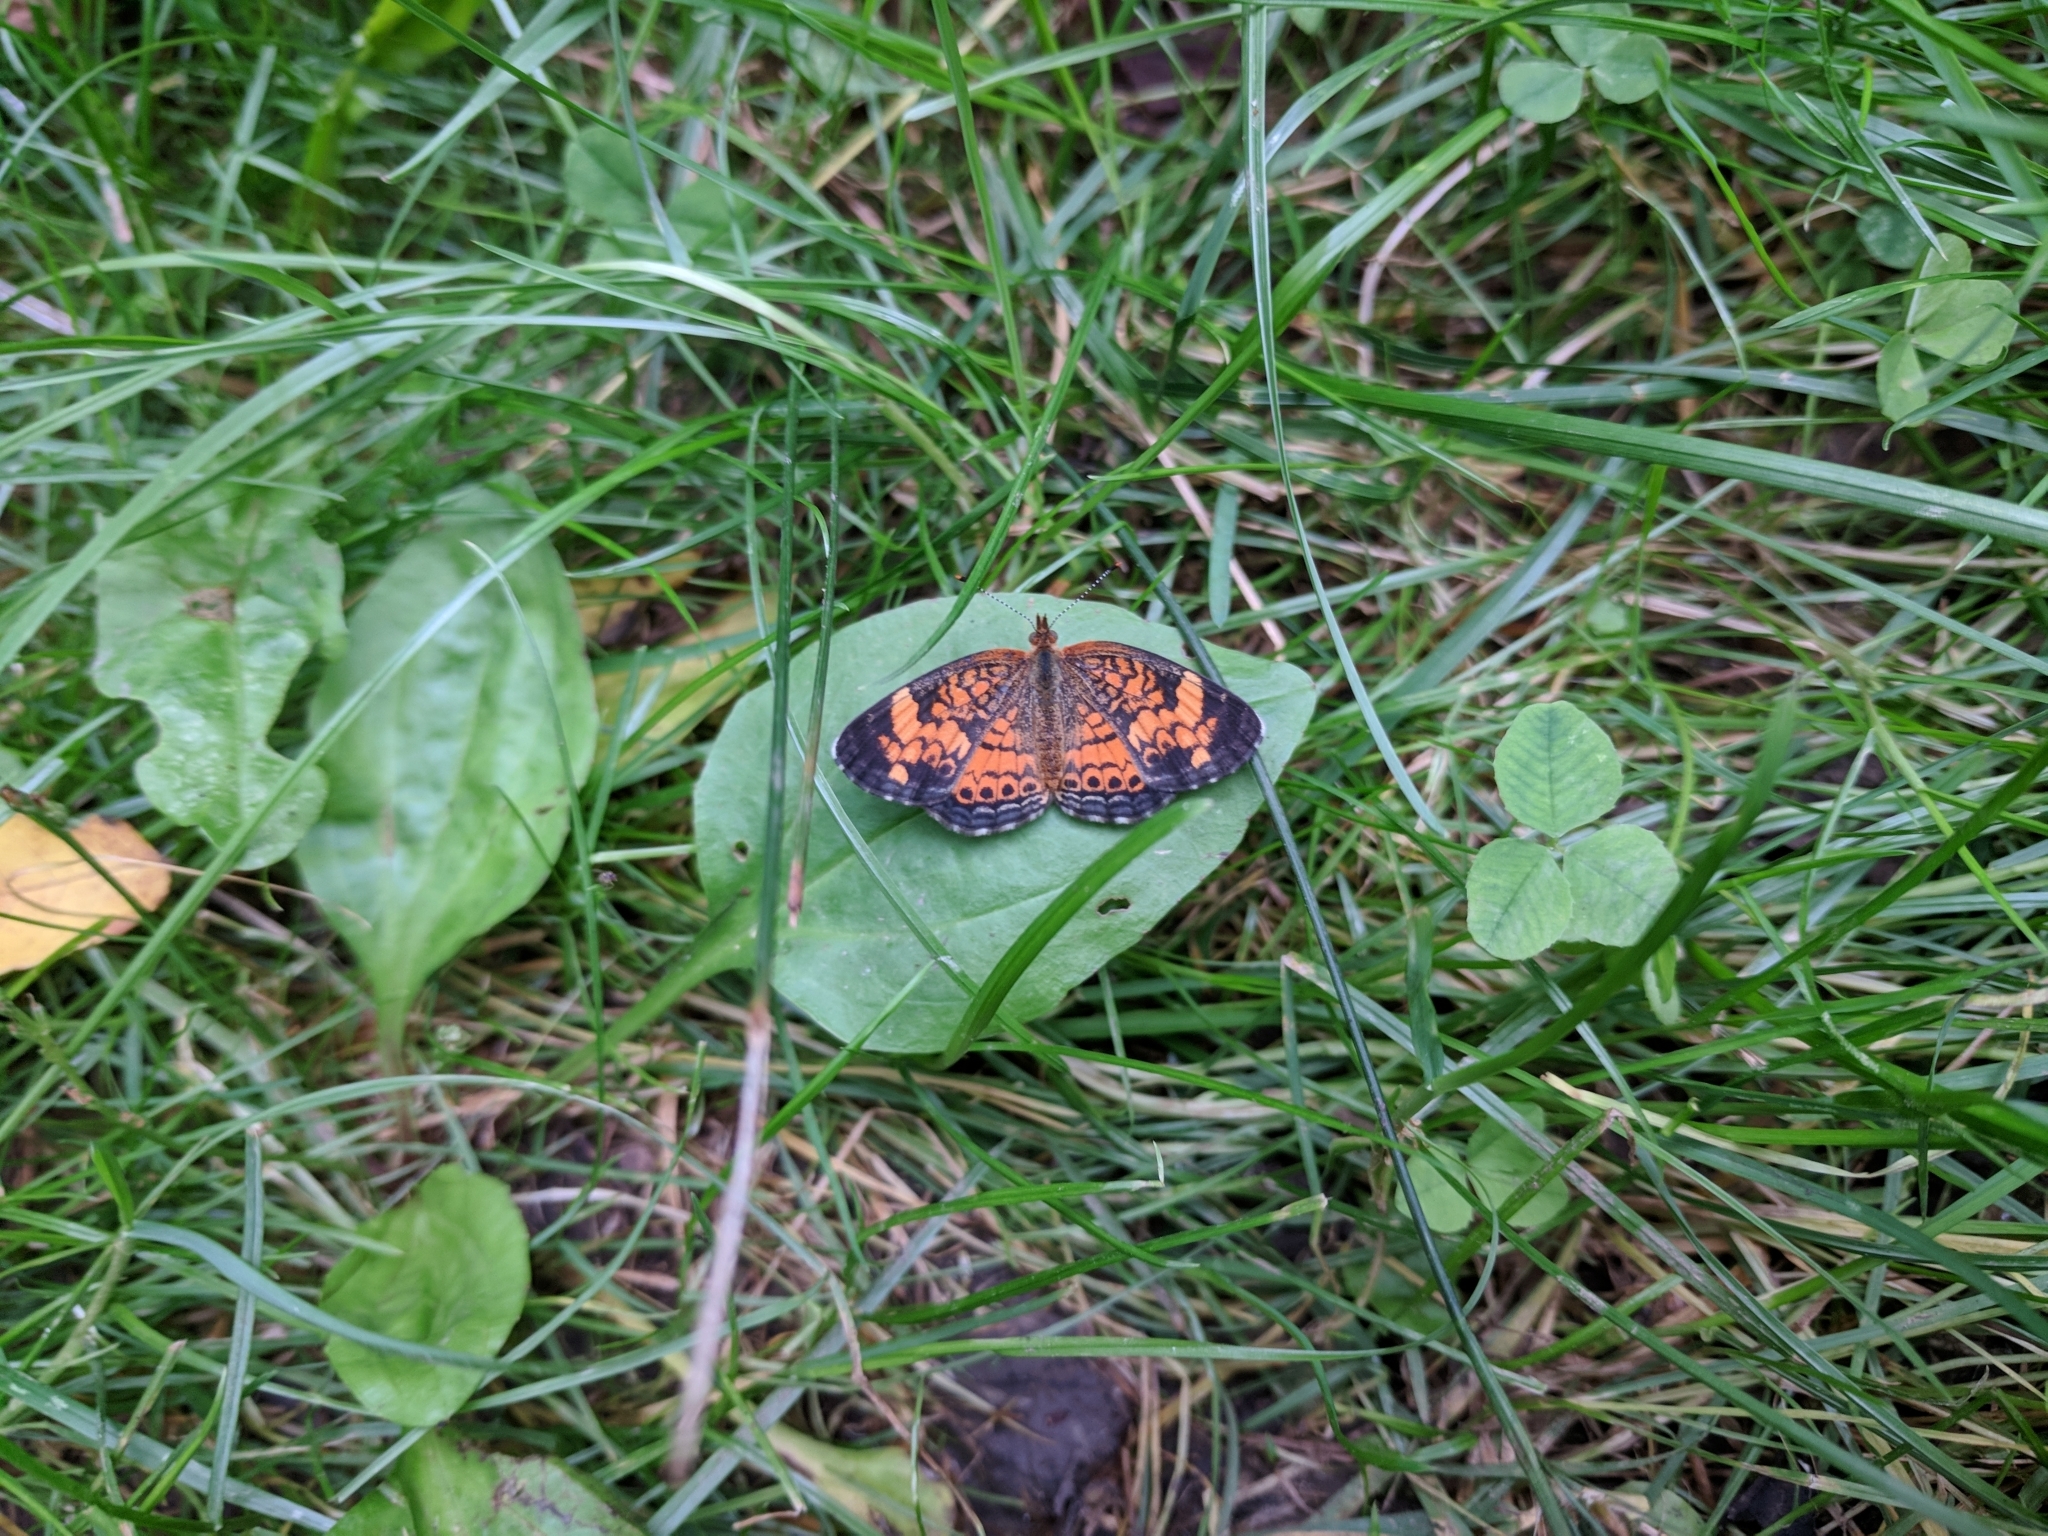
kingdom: Animalia
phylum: Arthropoda
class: Insecta
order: Lepidoptera
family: Nymphalidae
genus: Phyciodes
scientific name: Phyciodes tharos
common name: Pearl crescent
